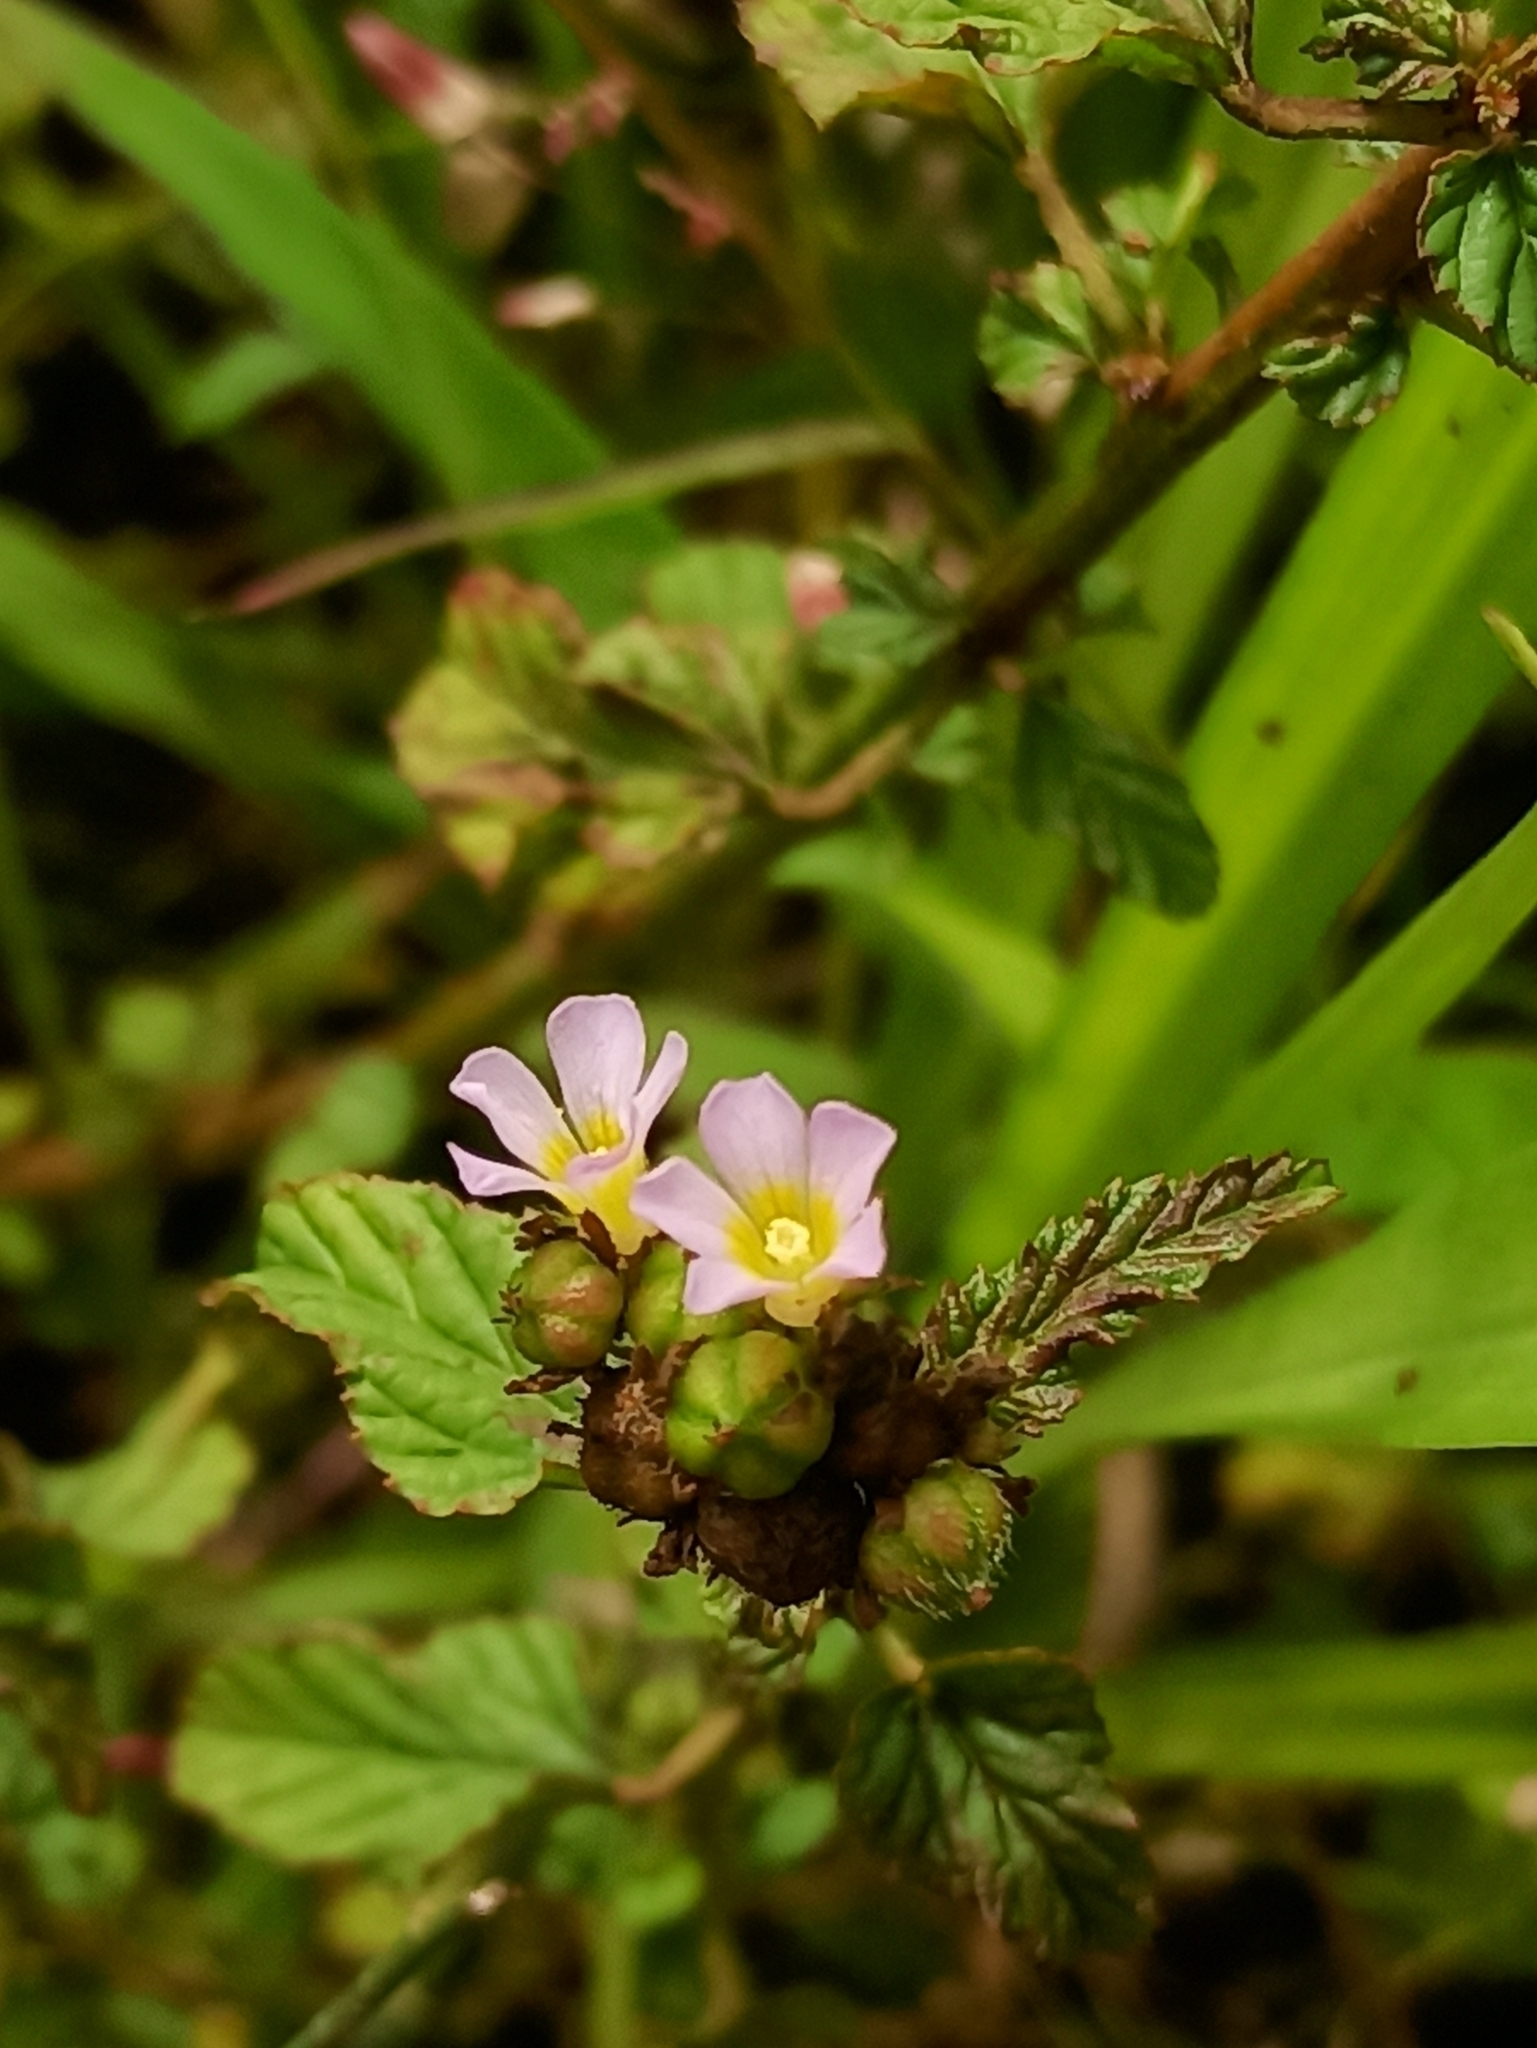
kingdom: Plantae
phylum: Tracheophyta
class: Magnoliopsida
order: Malvales
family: Malvaceae
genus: Melochia
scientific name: Melochia corchorifolia
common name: Chocolateweed
